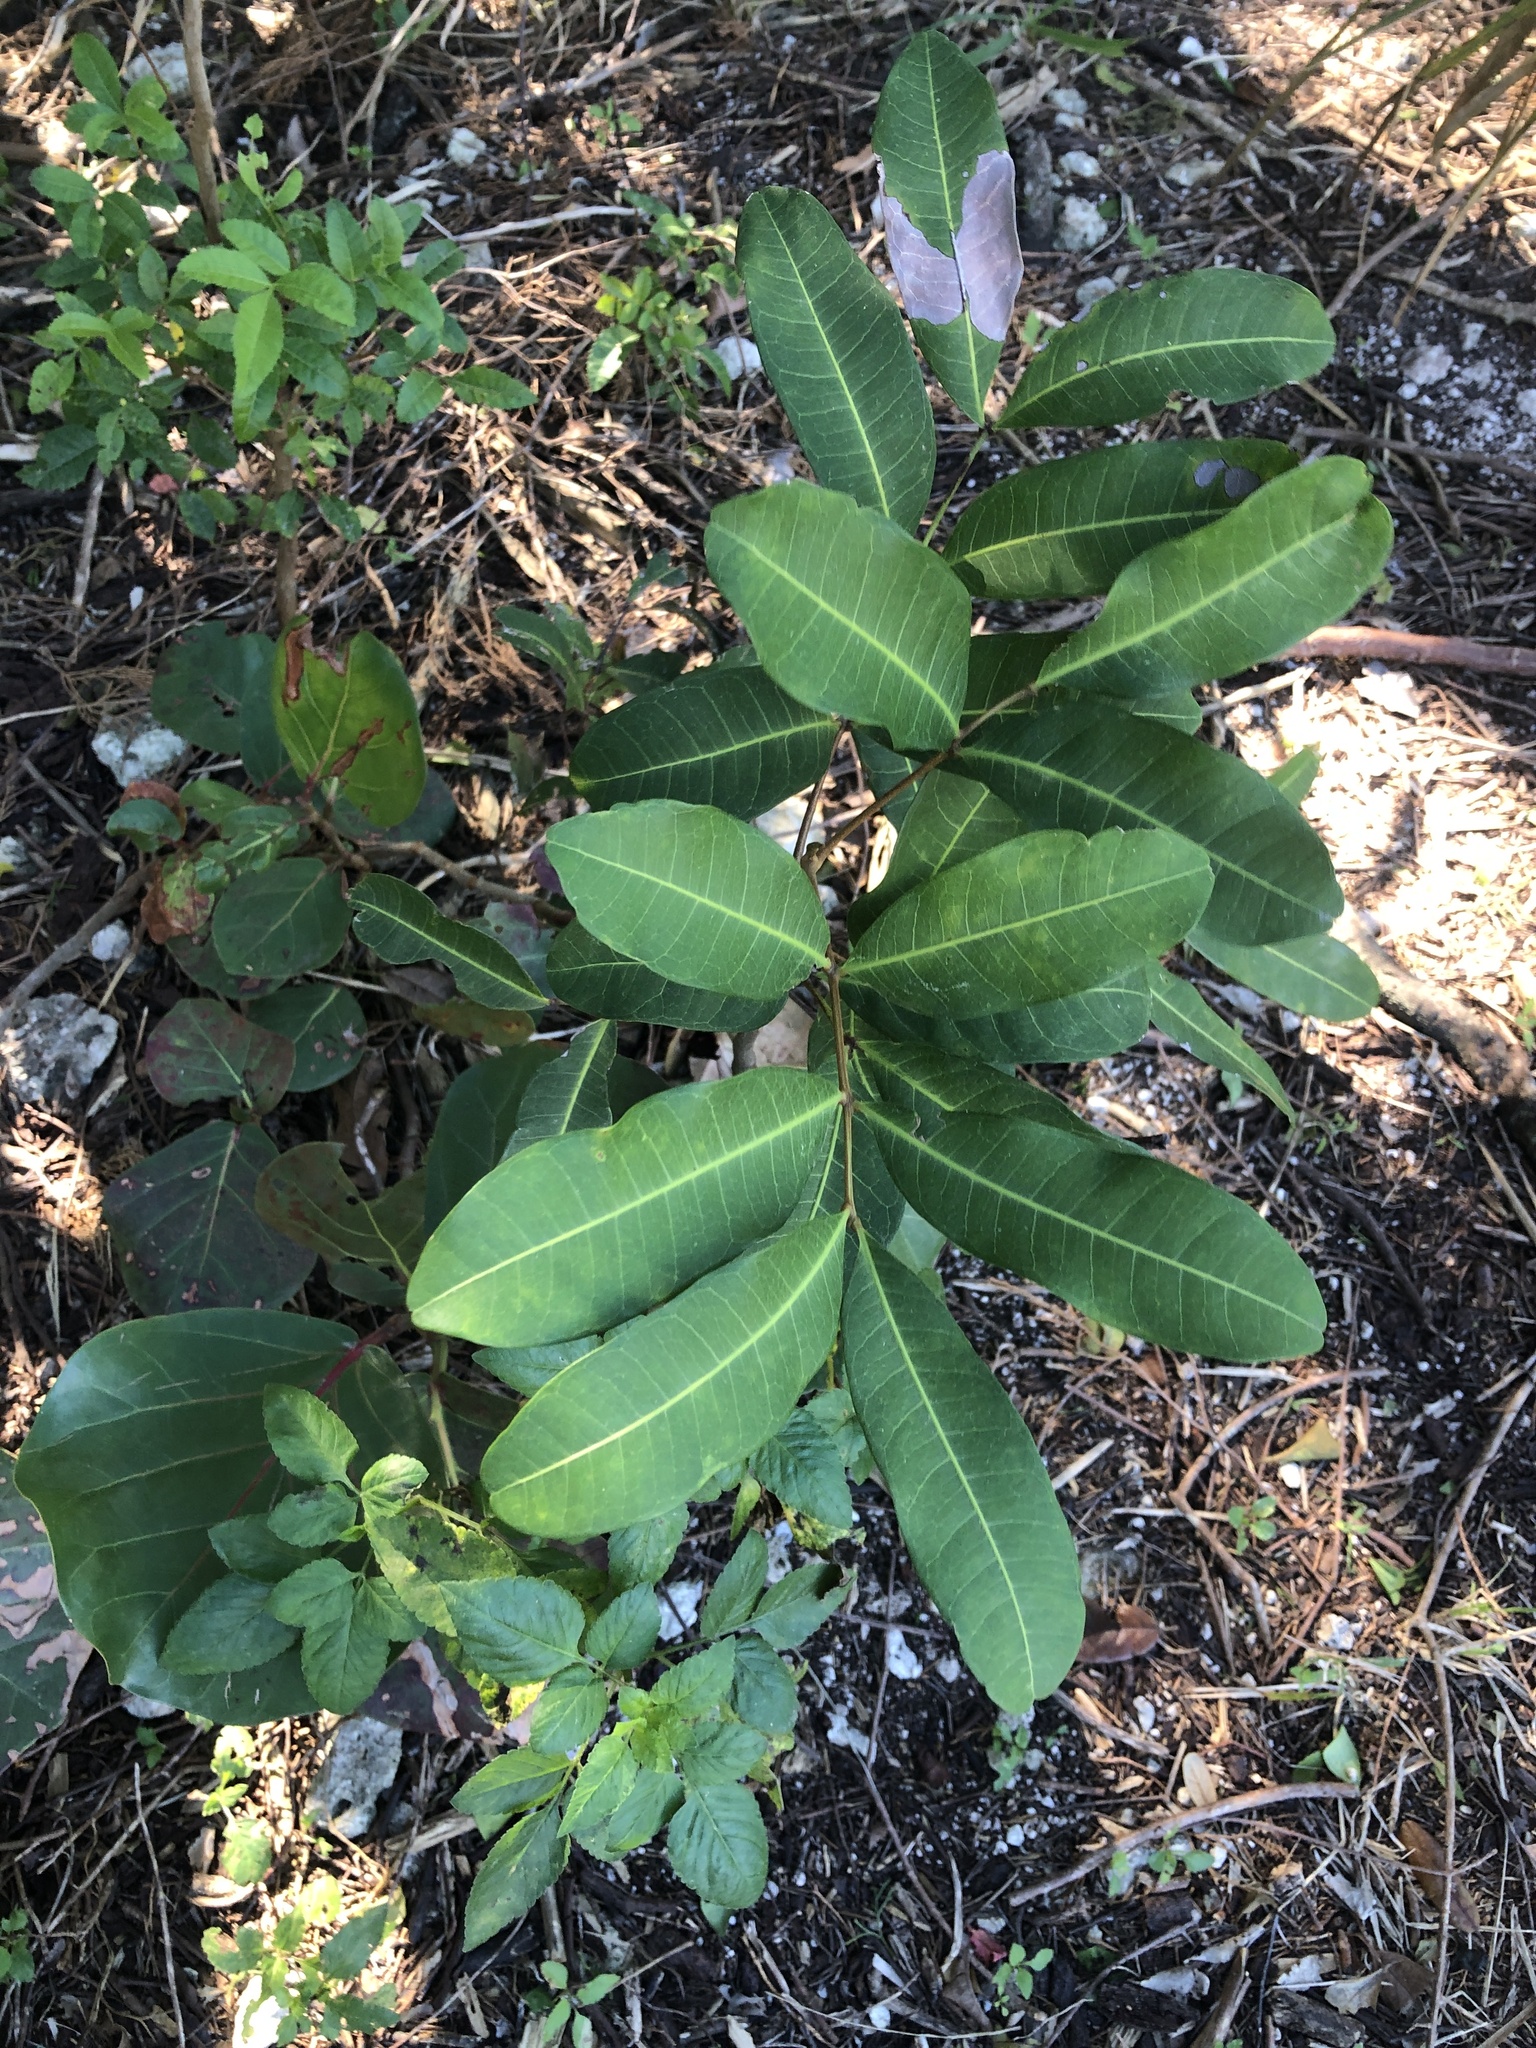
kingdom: Plantae
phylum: Tracheophyta
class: Magnoliopsida
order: Sapindales
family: Sapindaceae
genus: Cupaniopsis
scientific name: Cupaniopsis anacardioides
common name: Carrotwood
